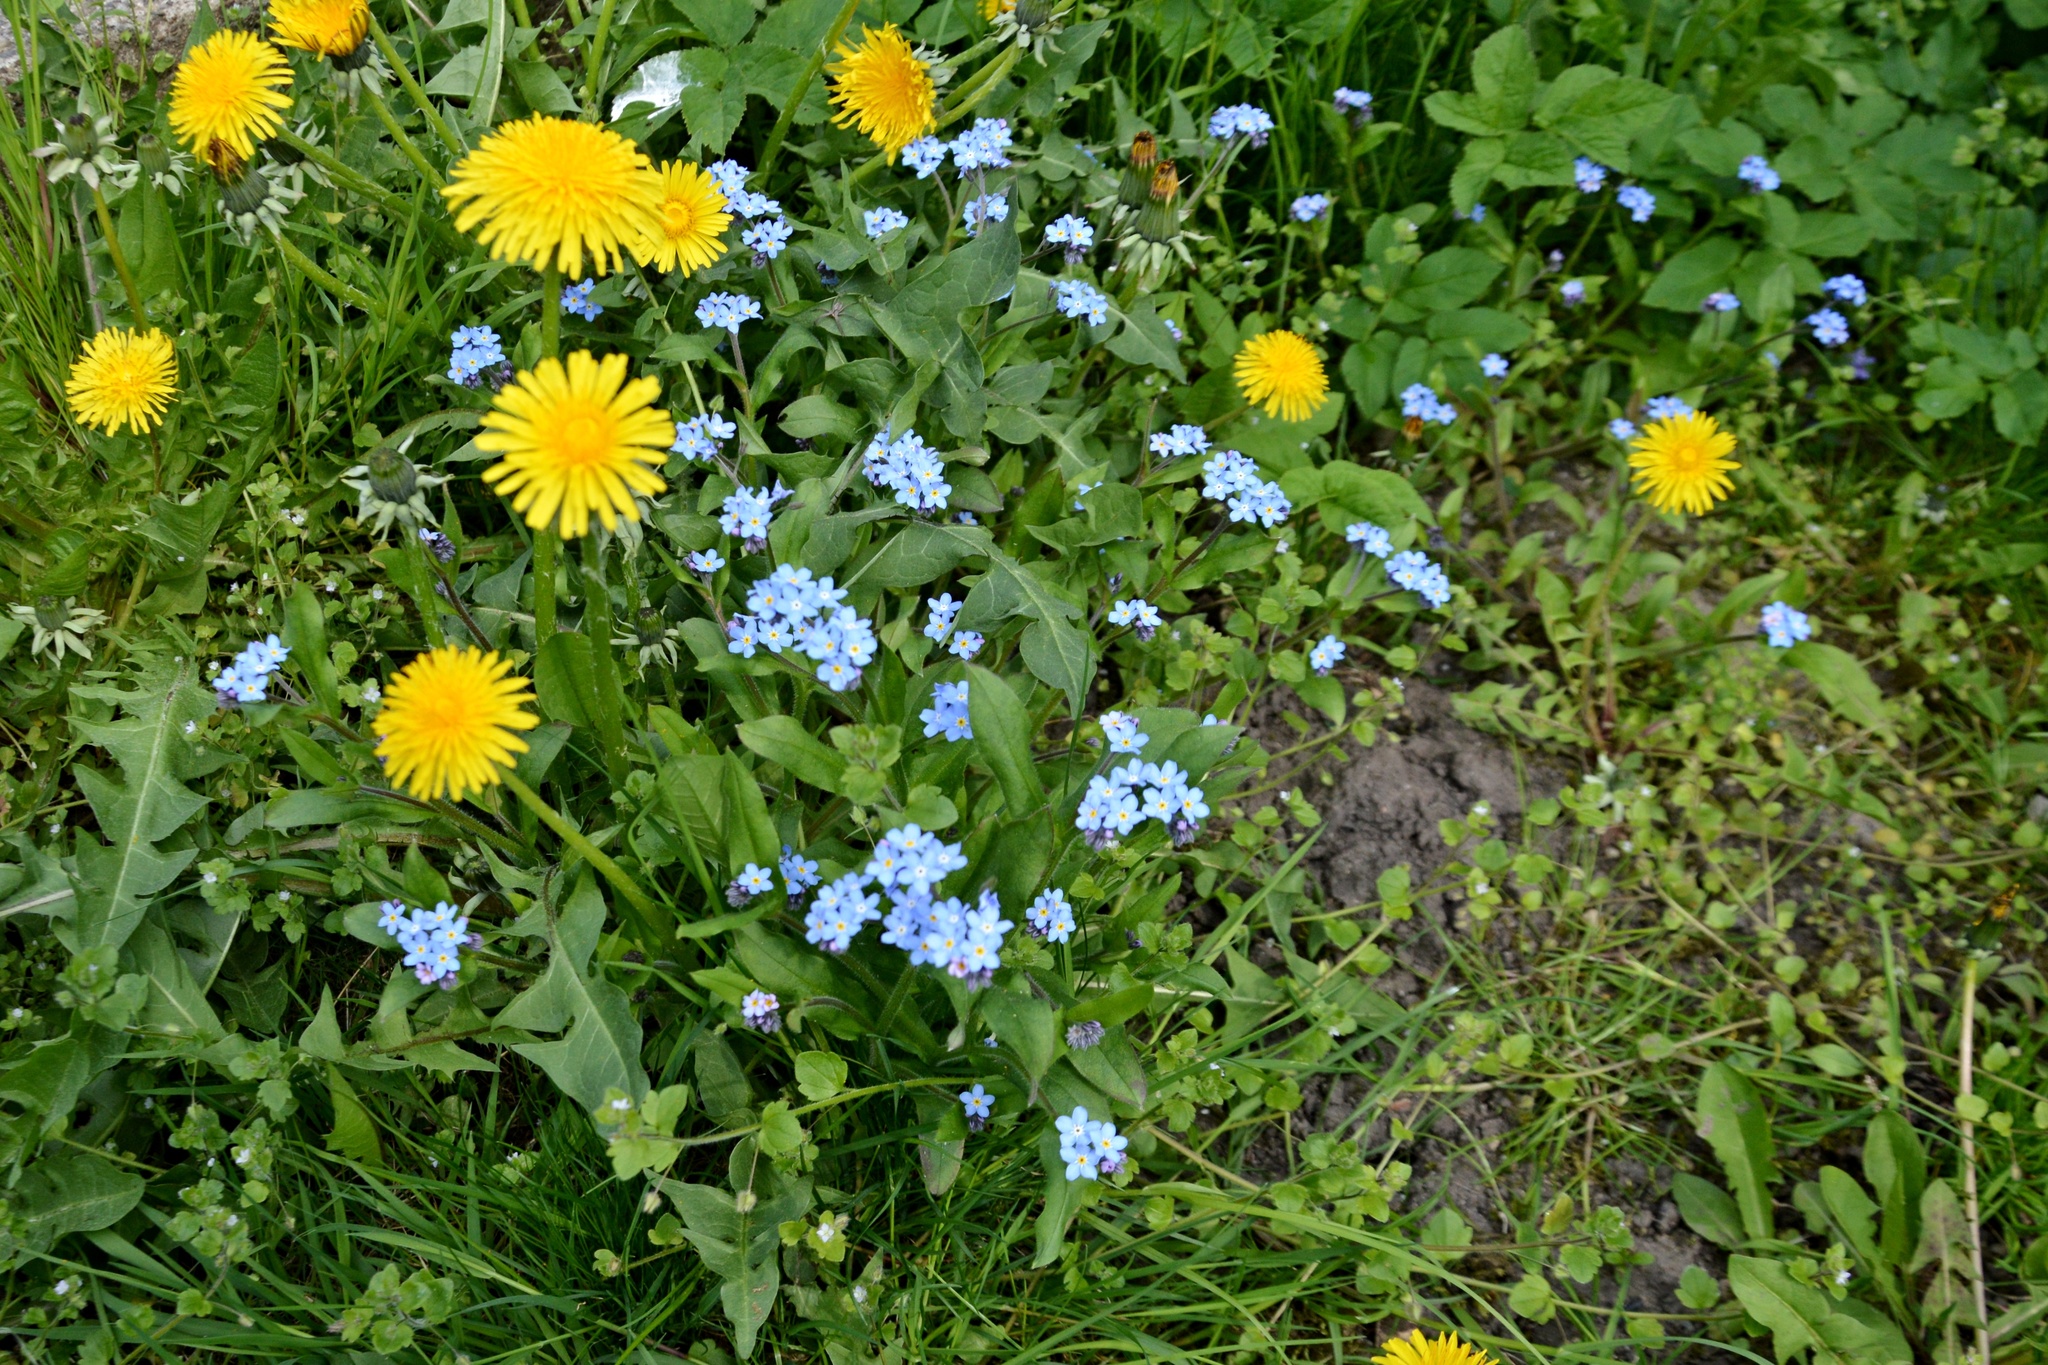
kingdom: Plantae
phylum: Tracheophyta
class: Magnoliopsida
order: Boraginales
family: Boraginaceae
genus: Myosotis
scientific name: Myosotis sylvatica
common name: Wood forget-me-not
